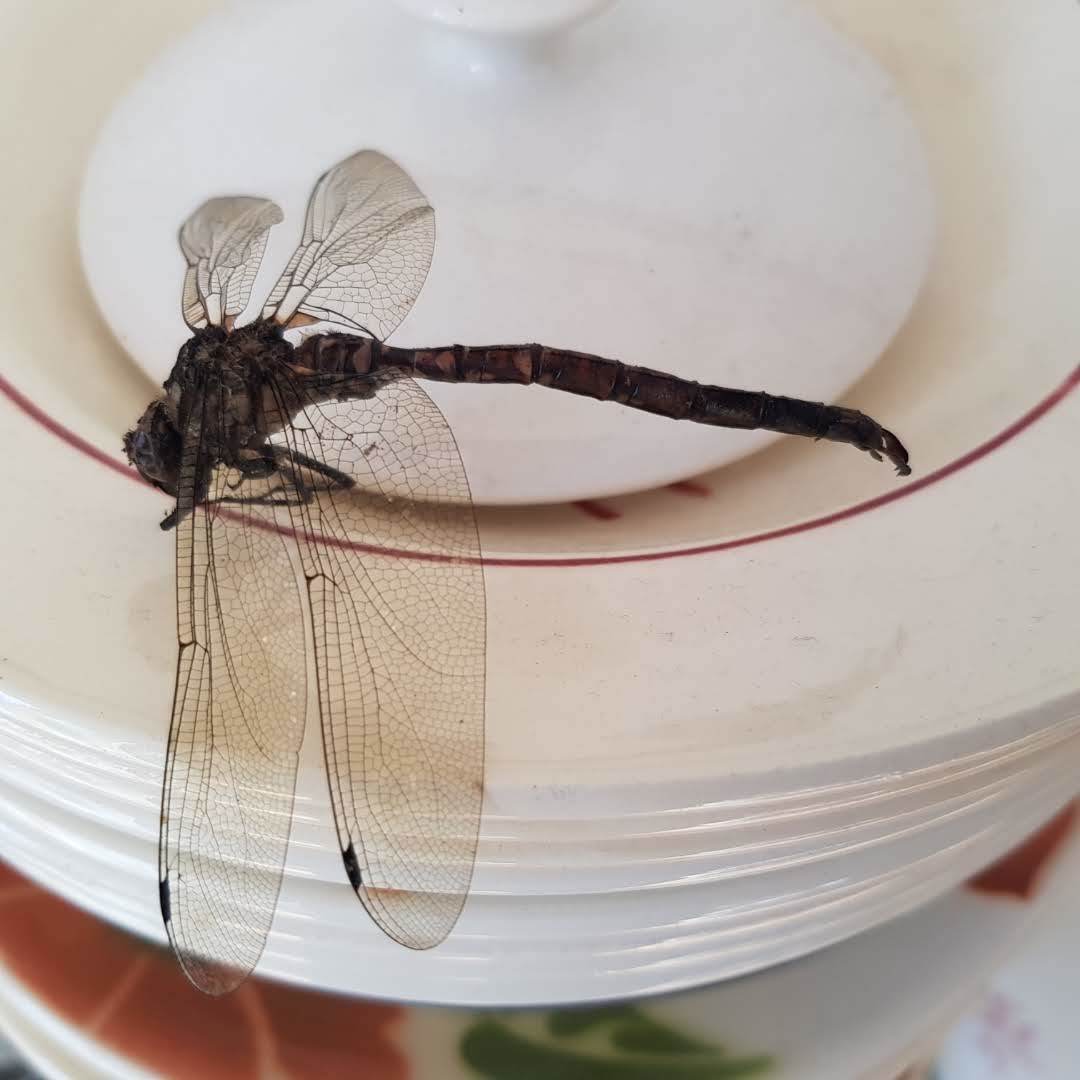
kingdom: Animalia
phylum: Arthropoda
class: Insecta
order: Odonata
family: Aeshnidae
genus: Aeshna
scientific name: Aeshna cyanea
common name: Southern hawker
